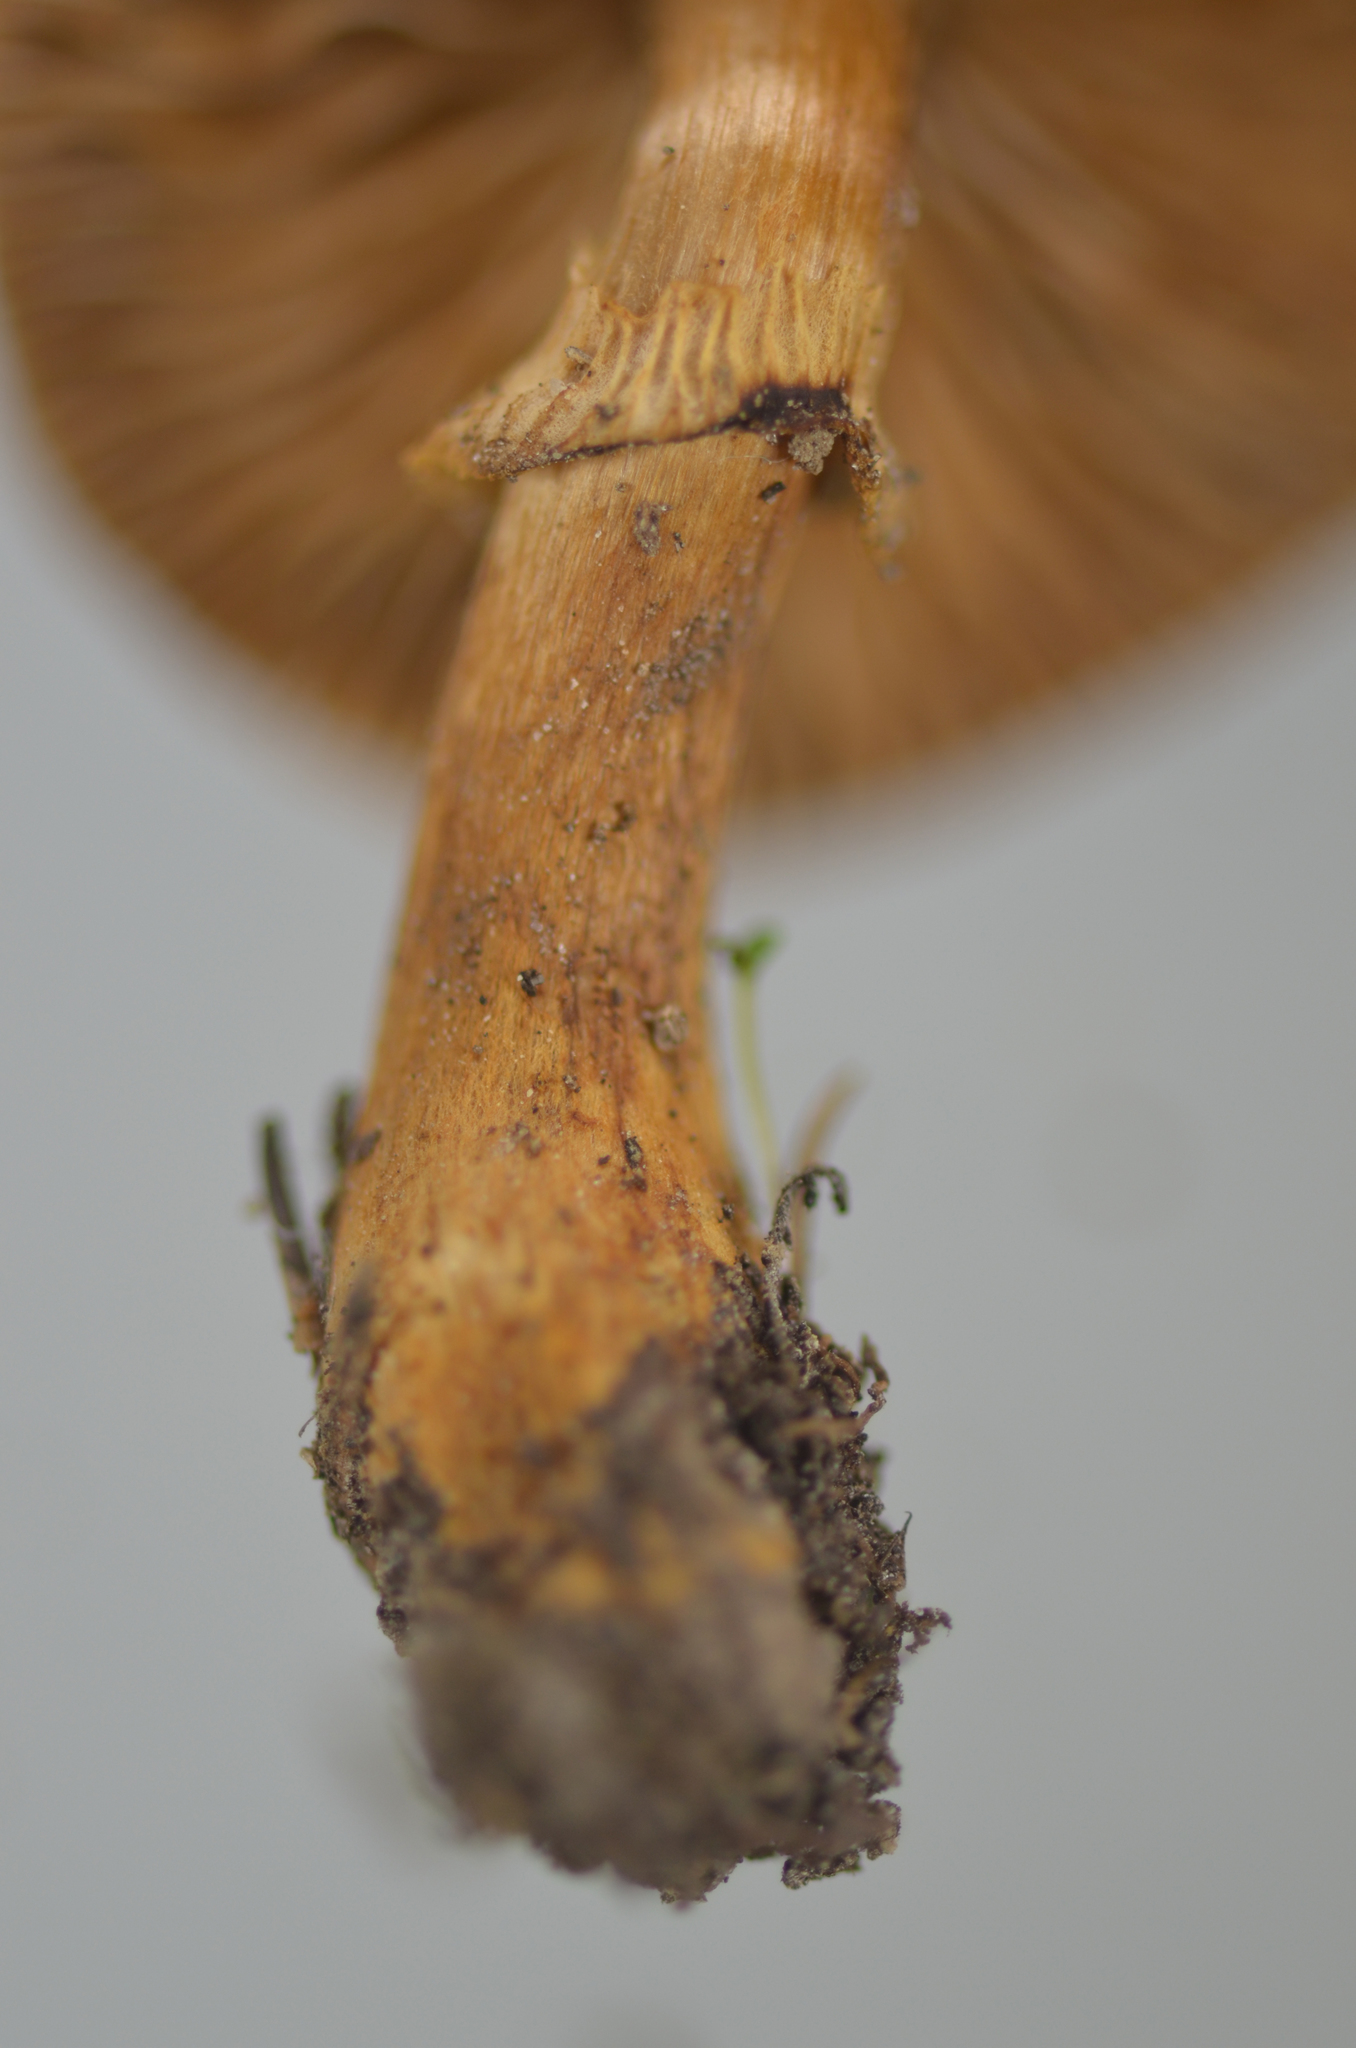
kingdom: Fungi
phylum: Basidiomycota
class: Agaricomycetes
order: Agaricales
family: Bolbitiaceae
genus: Descolea
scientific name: Descolea
